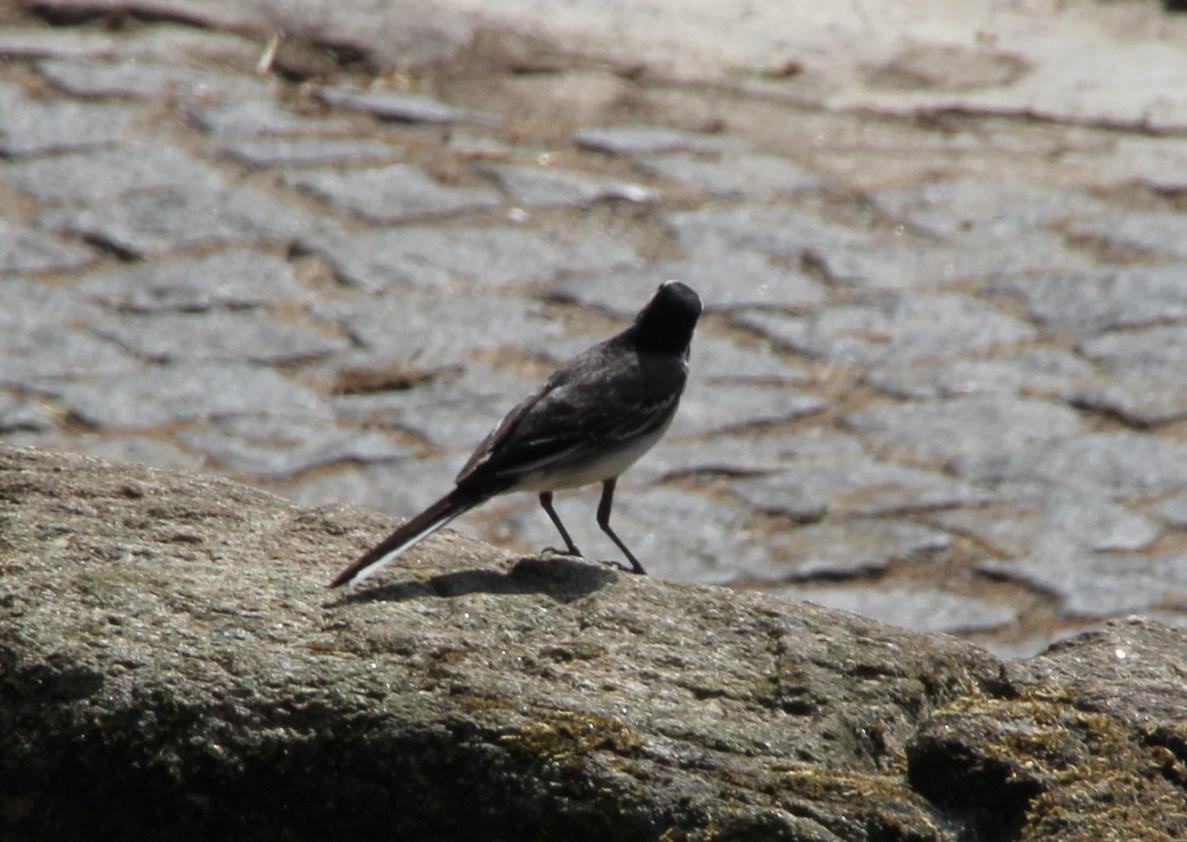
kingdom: Animalia
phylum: Chordata
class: Aves
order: Passeriformes
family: Motacillidae
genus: Motacilla
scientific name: Motacilla alba
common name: White wagtail
